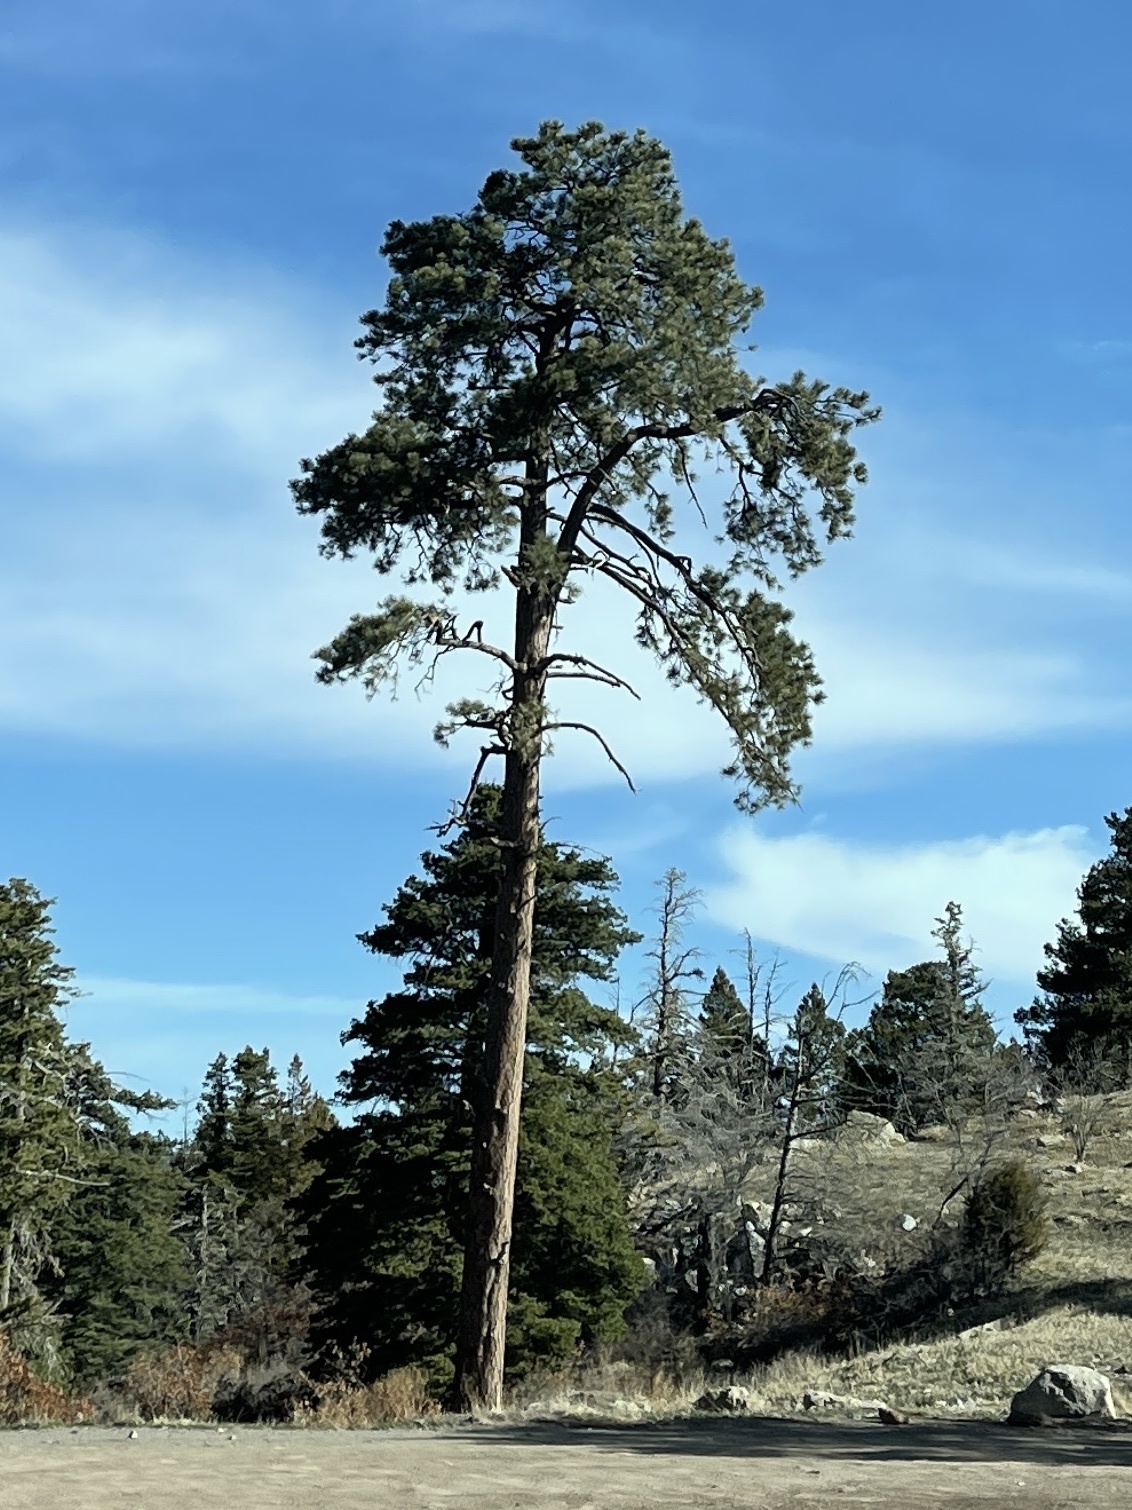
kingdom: Plantae
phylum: Tracheophyta
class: Pinopsida
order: Pinales
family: Pinaceae
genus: Pinus
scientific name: Pinus ponderosa
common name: Western yellow-pine
